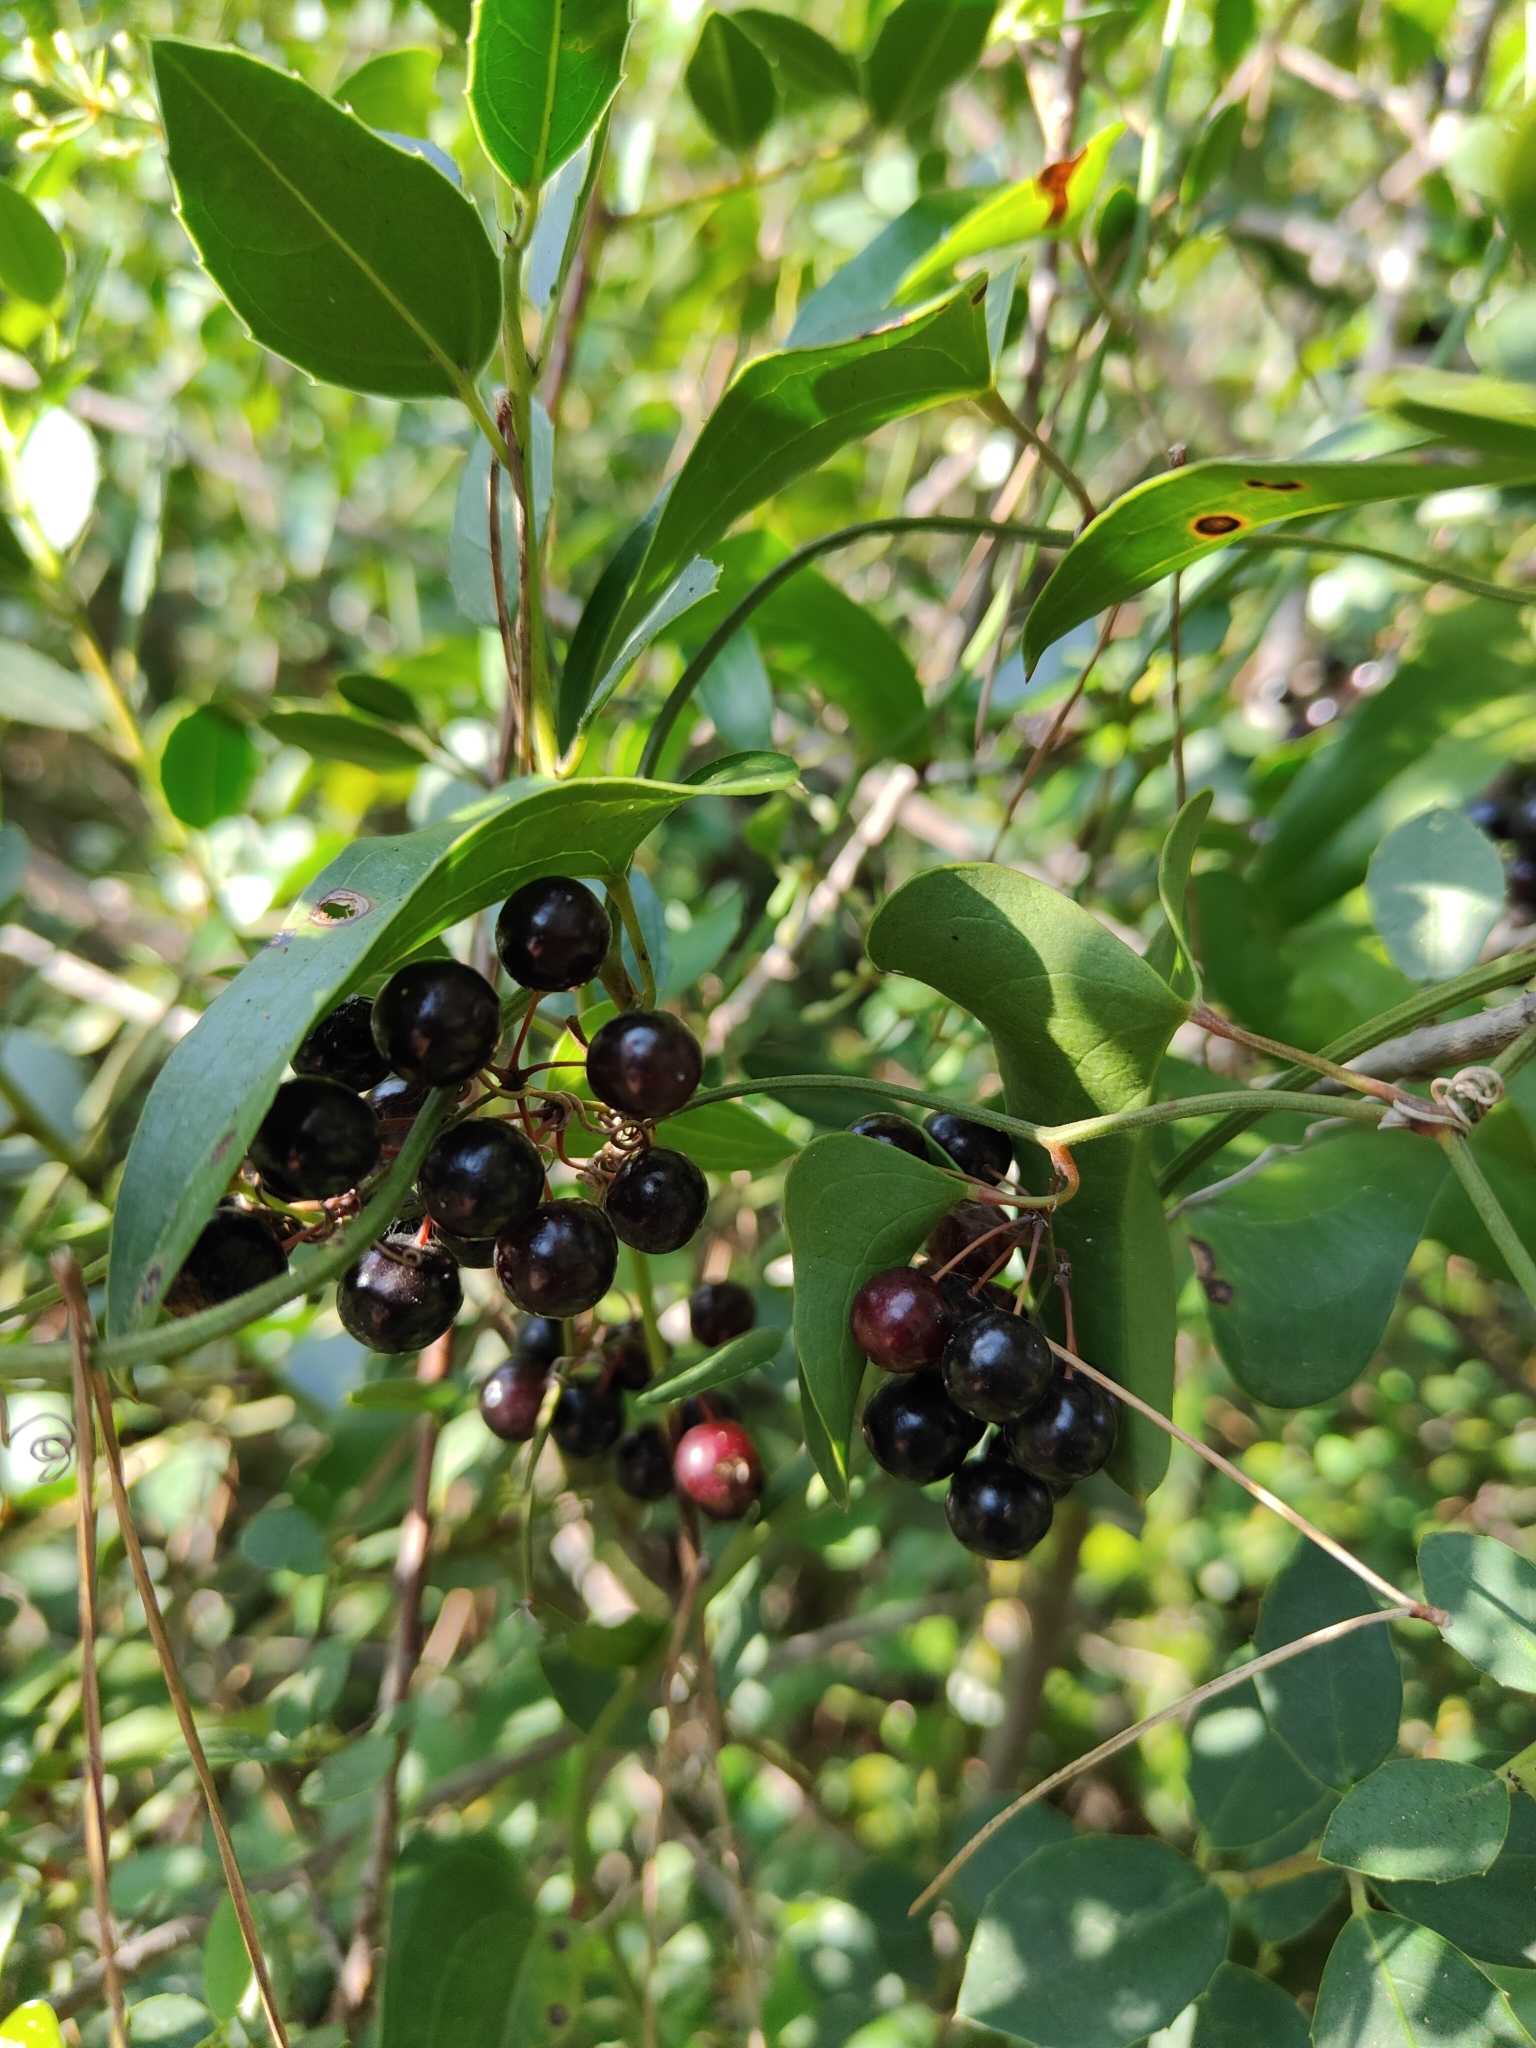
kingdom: Plantae
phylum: Tracheophyta
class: Magnoliopsida
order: Rosales
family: Rhamnaceae
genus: Rhamnus
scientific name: Rhamnus alaternus
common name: Mediterranean buckthorn
